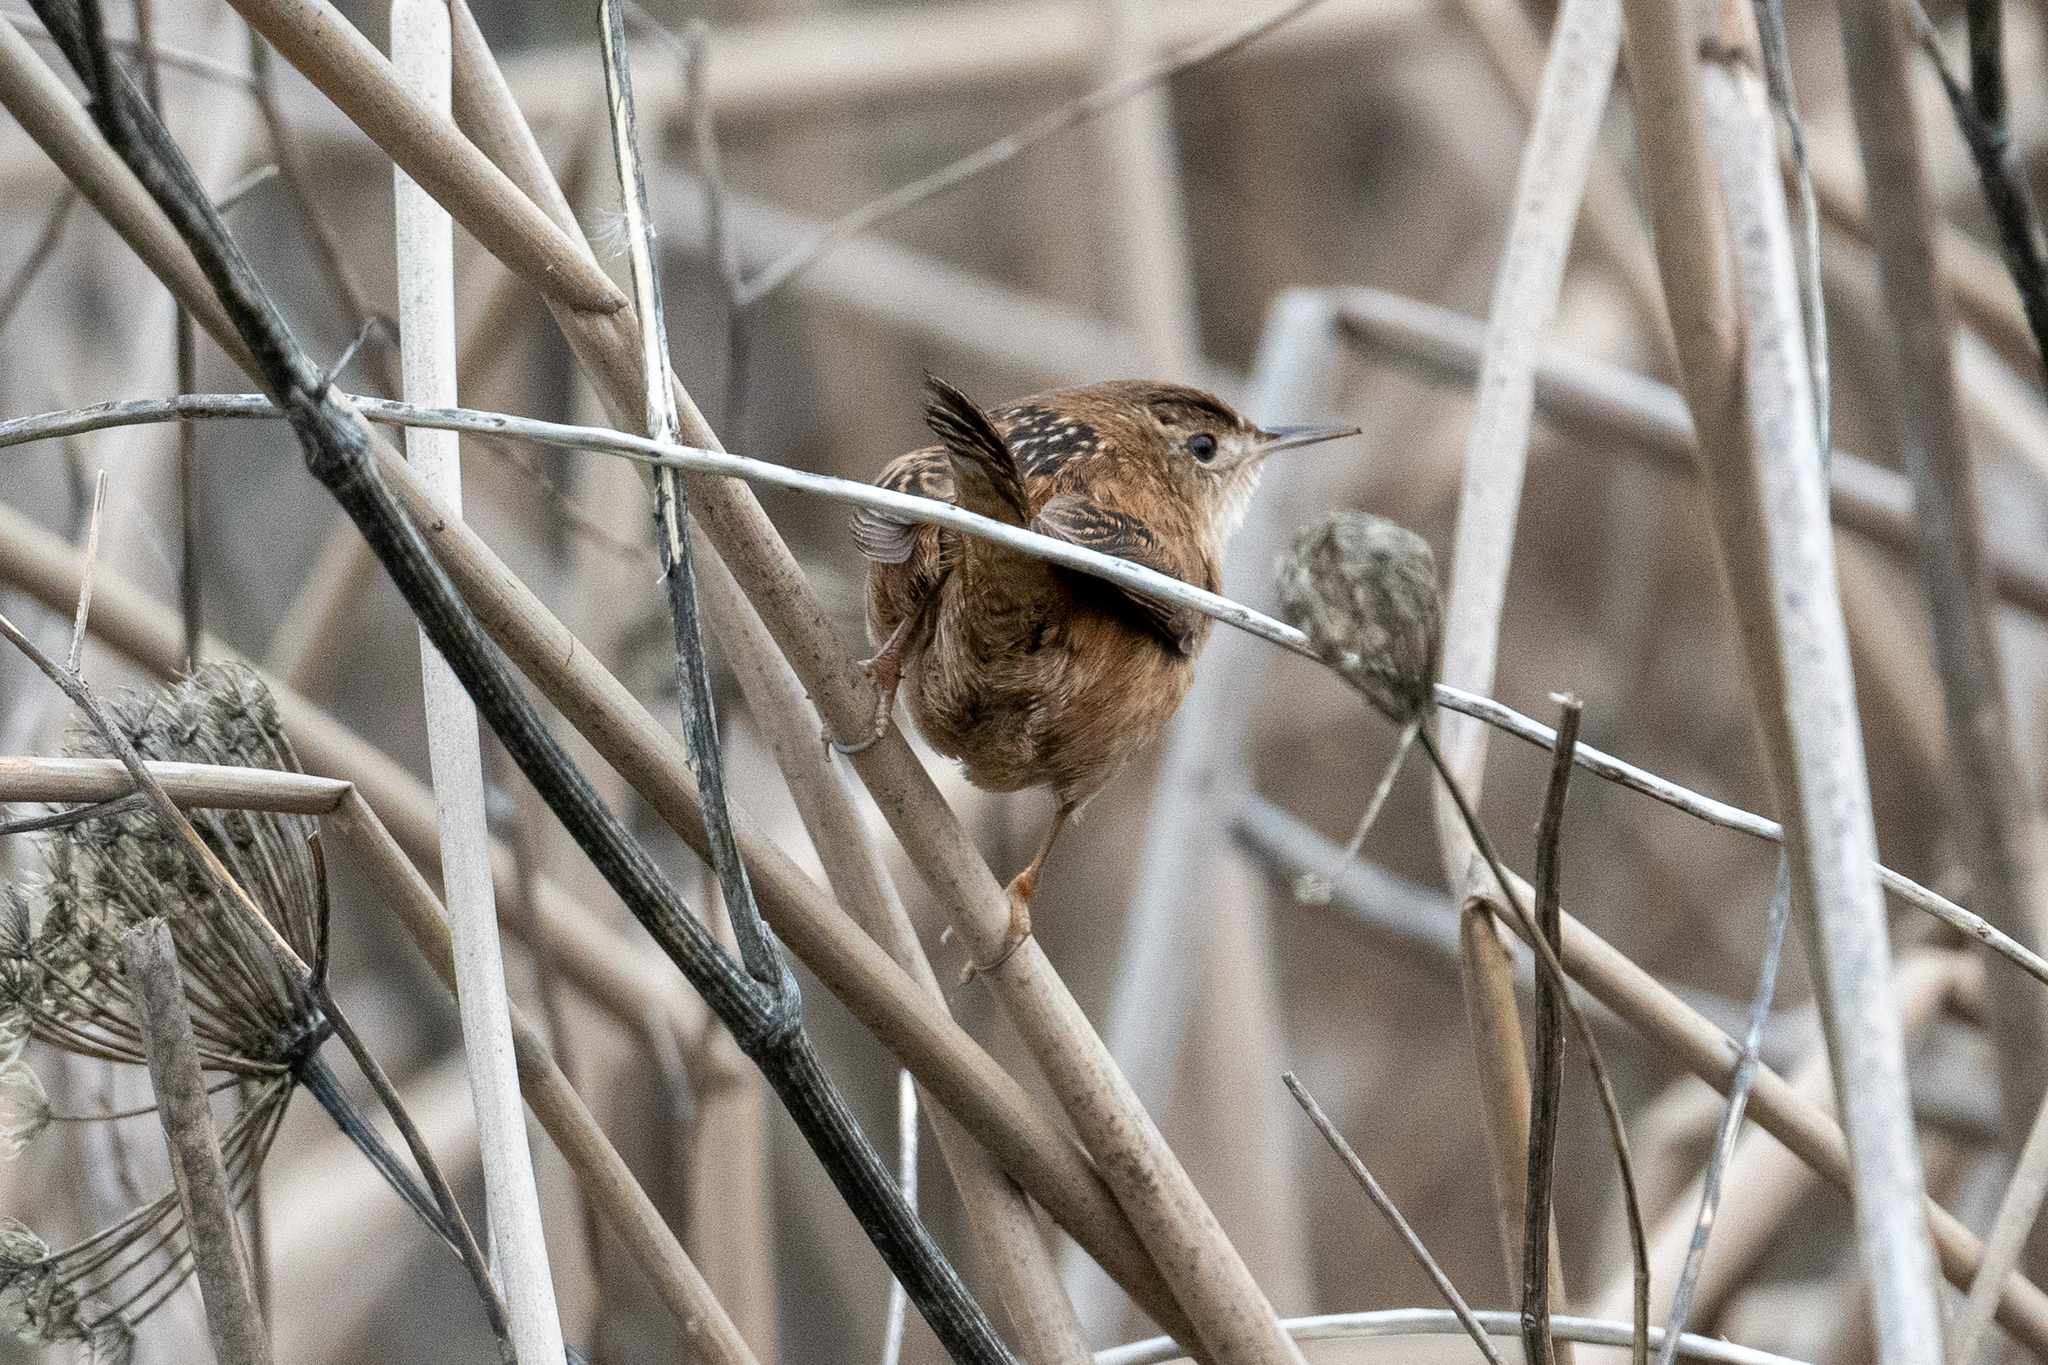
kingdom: Animalia
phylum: Chordata
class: Aves
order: Passeriformes
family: Troglodytidae
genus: Cistothorus
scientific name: Cistothorus palustris
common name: Marsh wren
